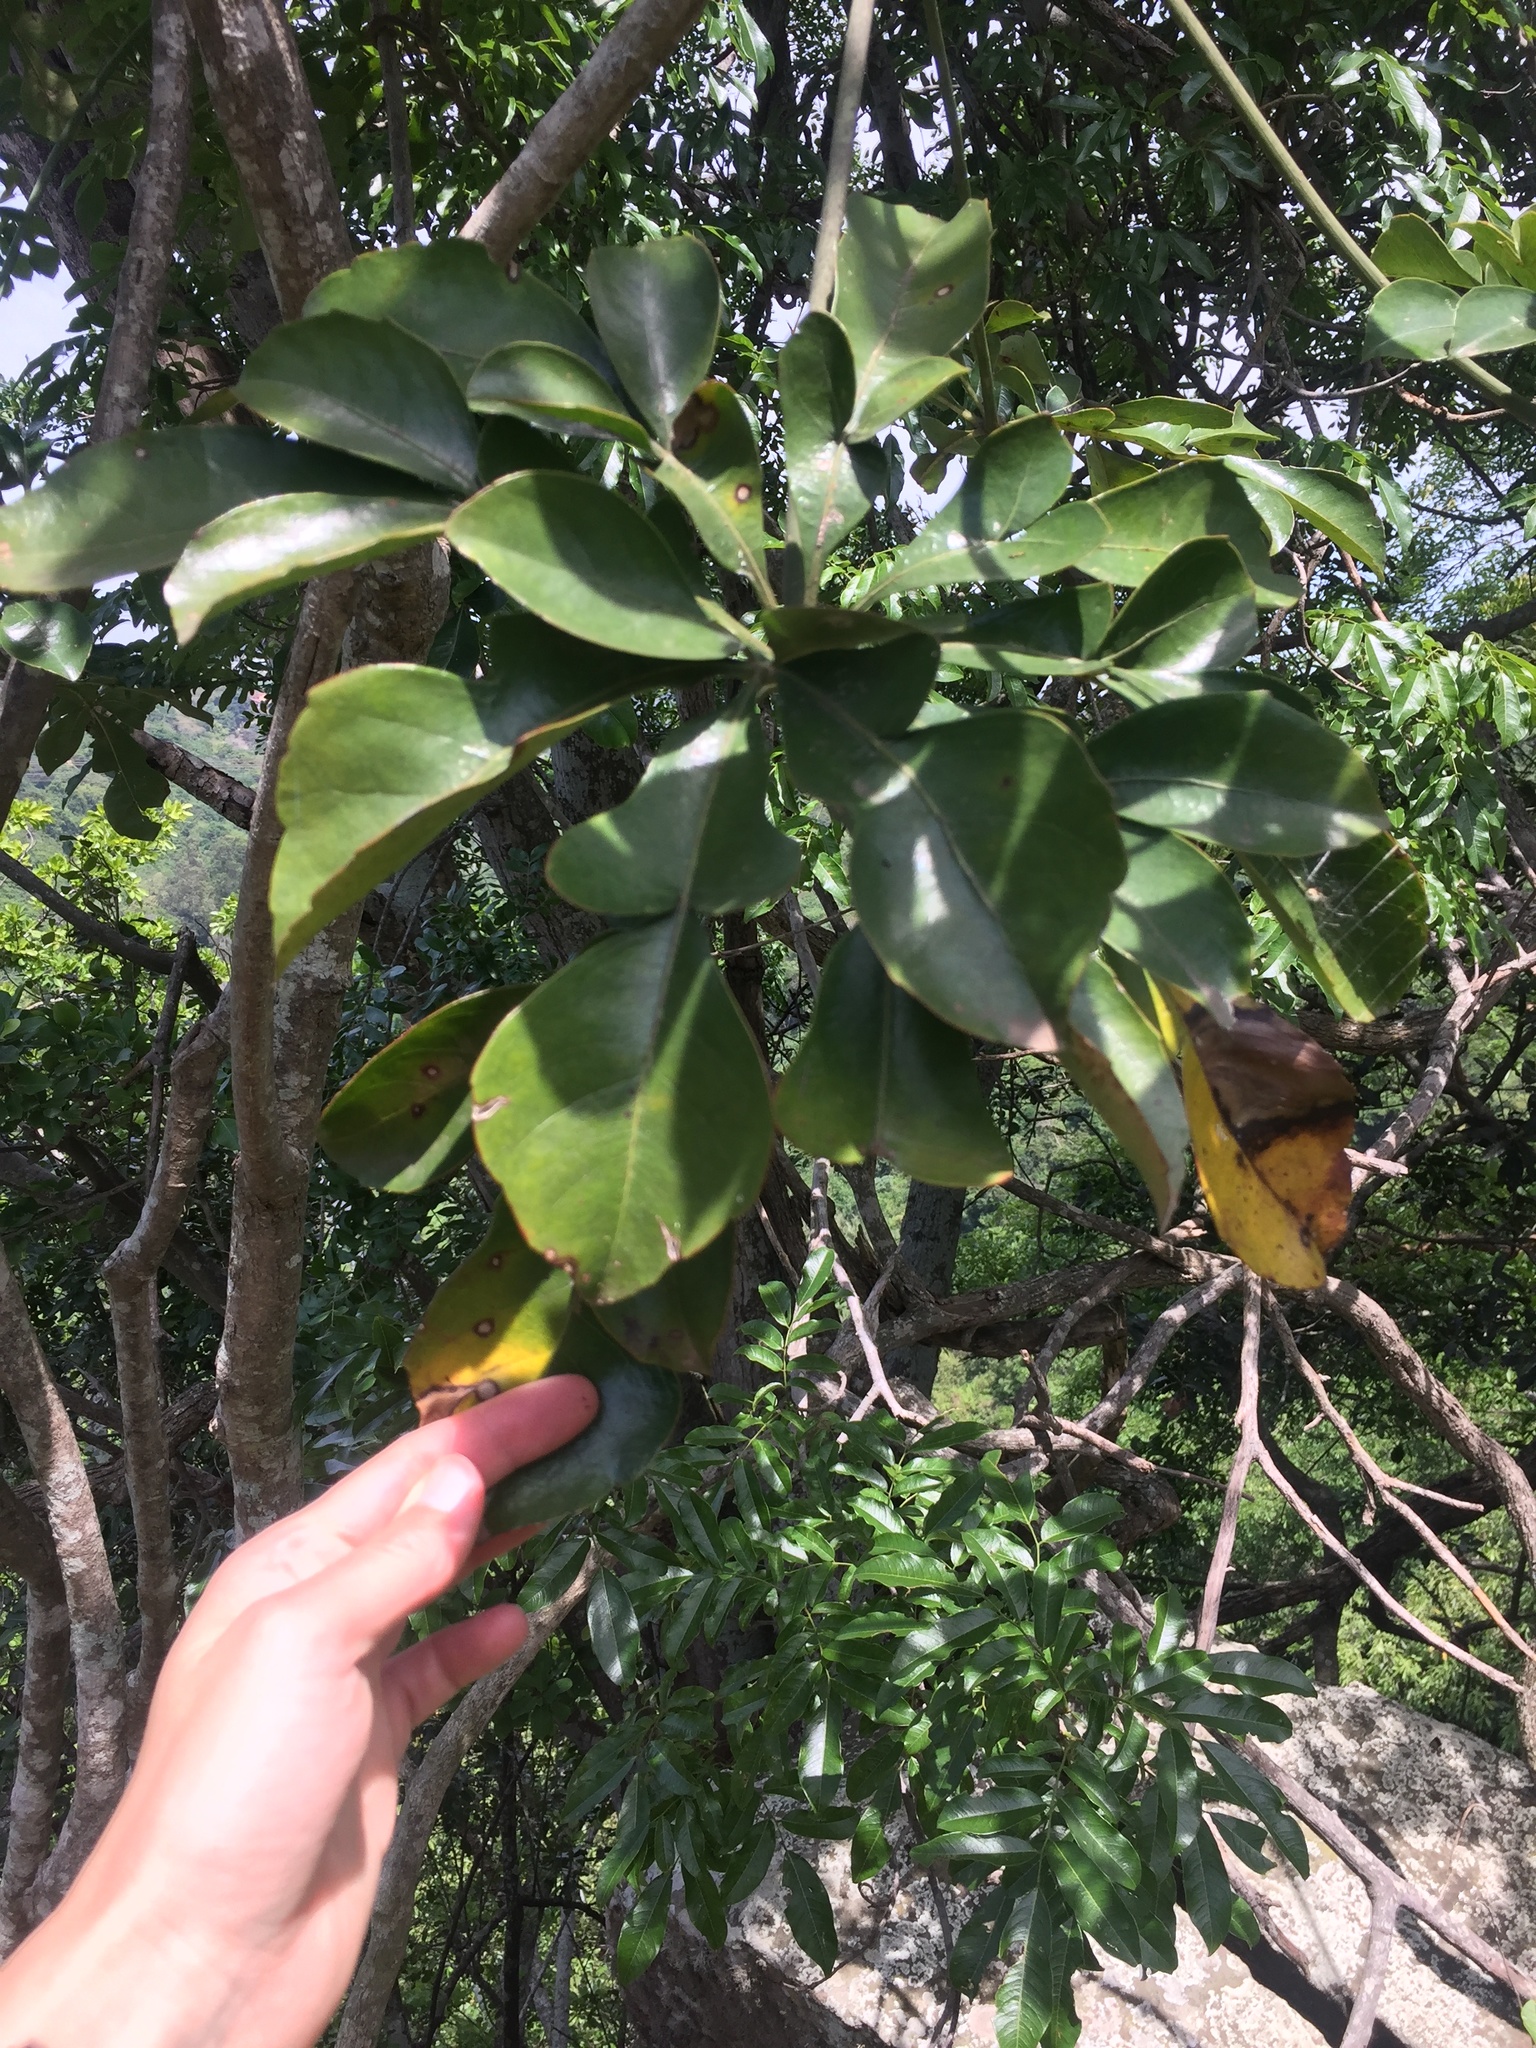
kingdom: Plantae
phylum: Tracheophyta
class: Magnoliopsida
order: Apiales
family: Araliaceae
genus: Cussonia
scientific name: Cussonia spicata
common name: Common cabbagetree
